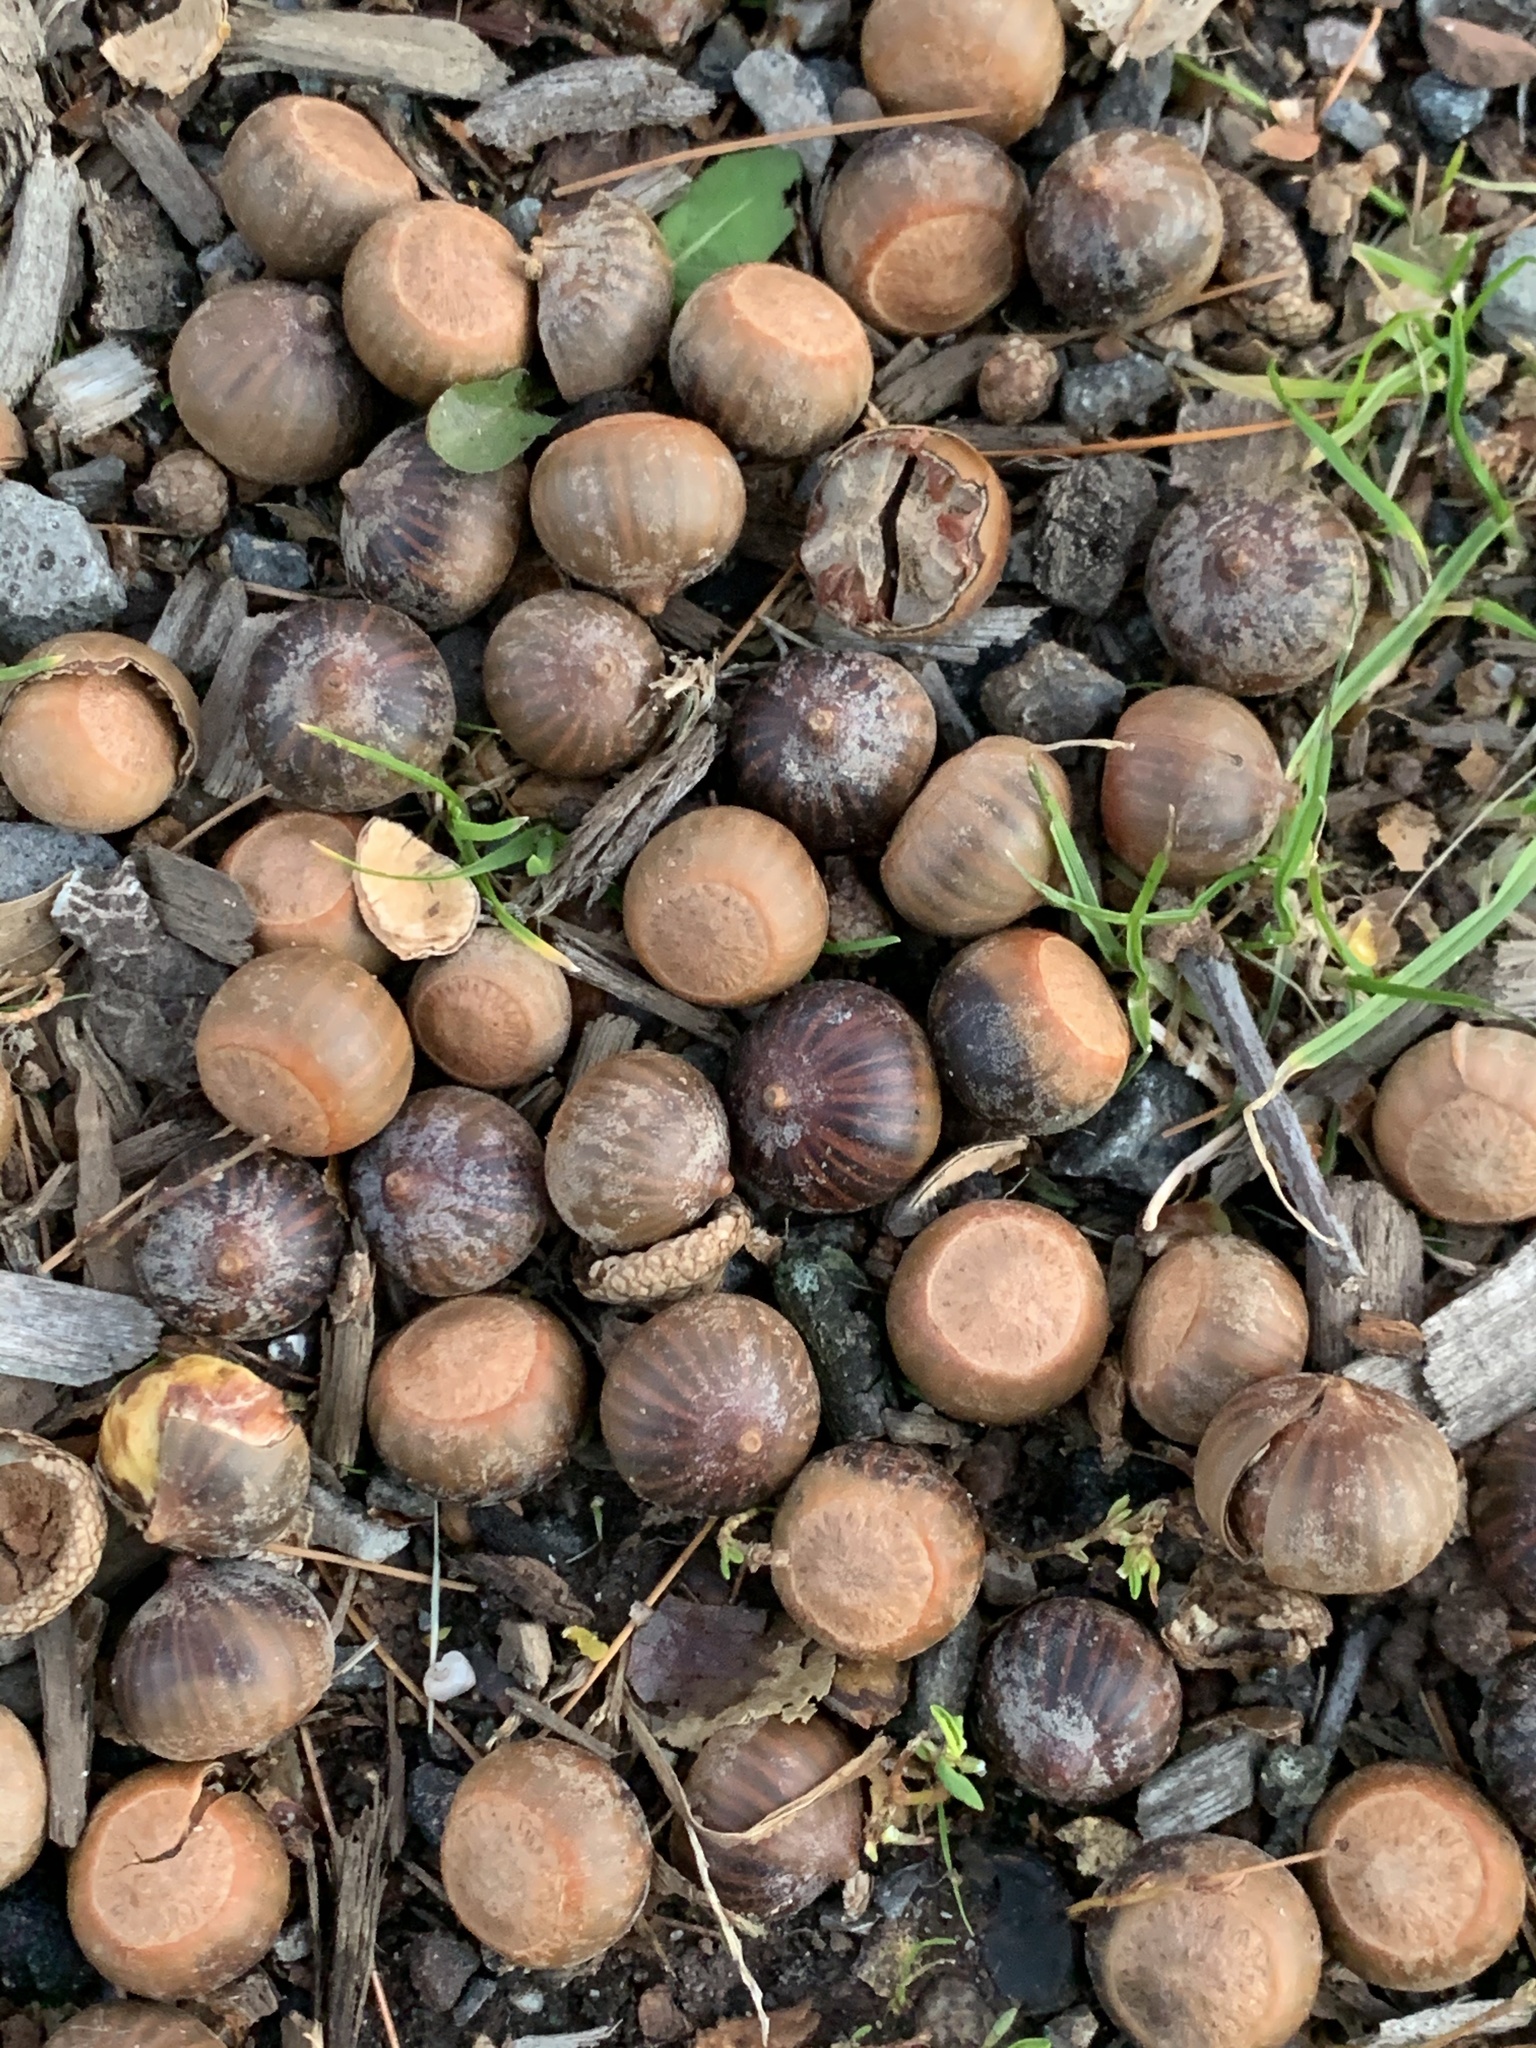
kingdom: Plantae
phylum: Tracheophyta
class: Magnoliopsida
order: Fagales
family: Fagaceae
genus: Quercus
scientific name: Quercus palustris
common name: Pin oak
